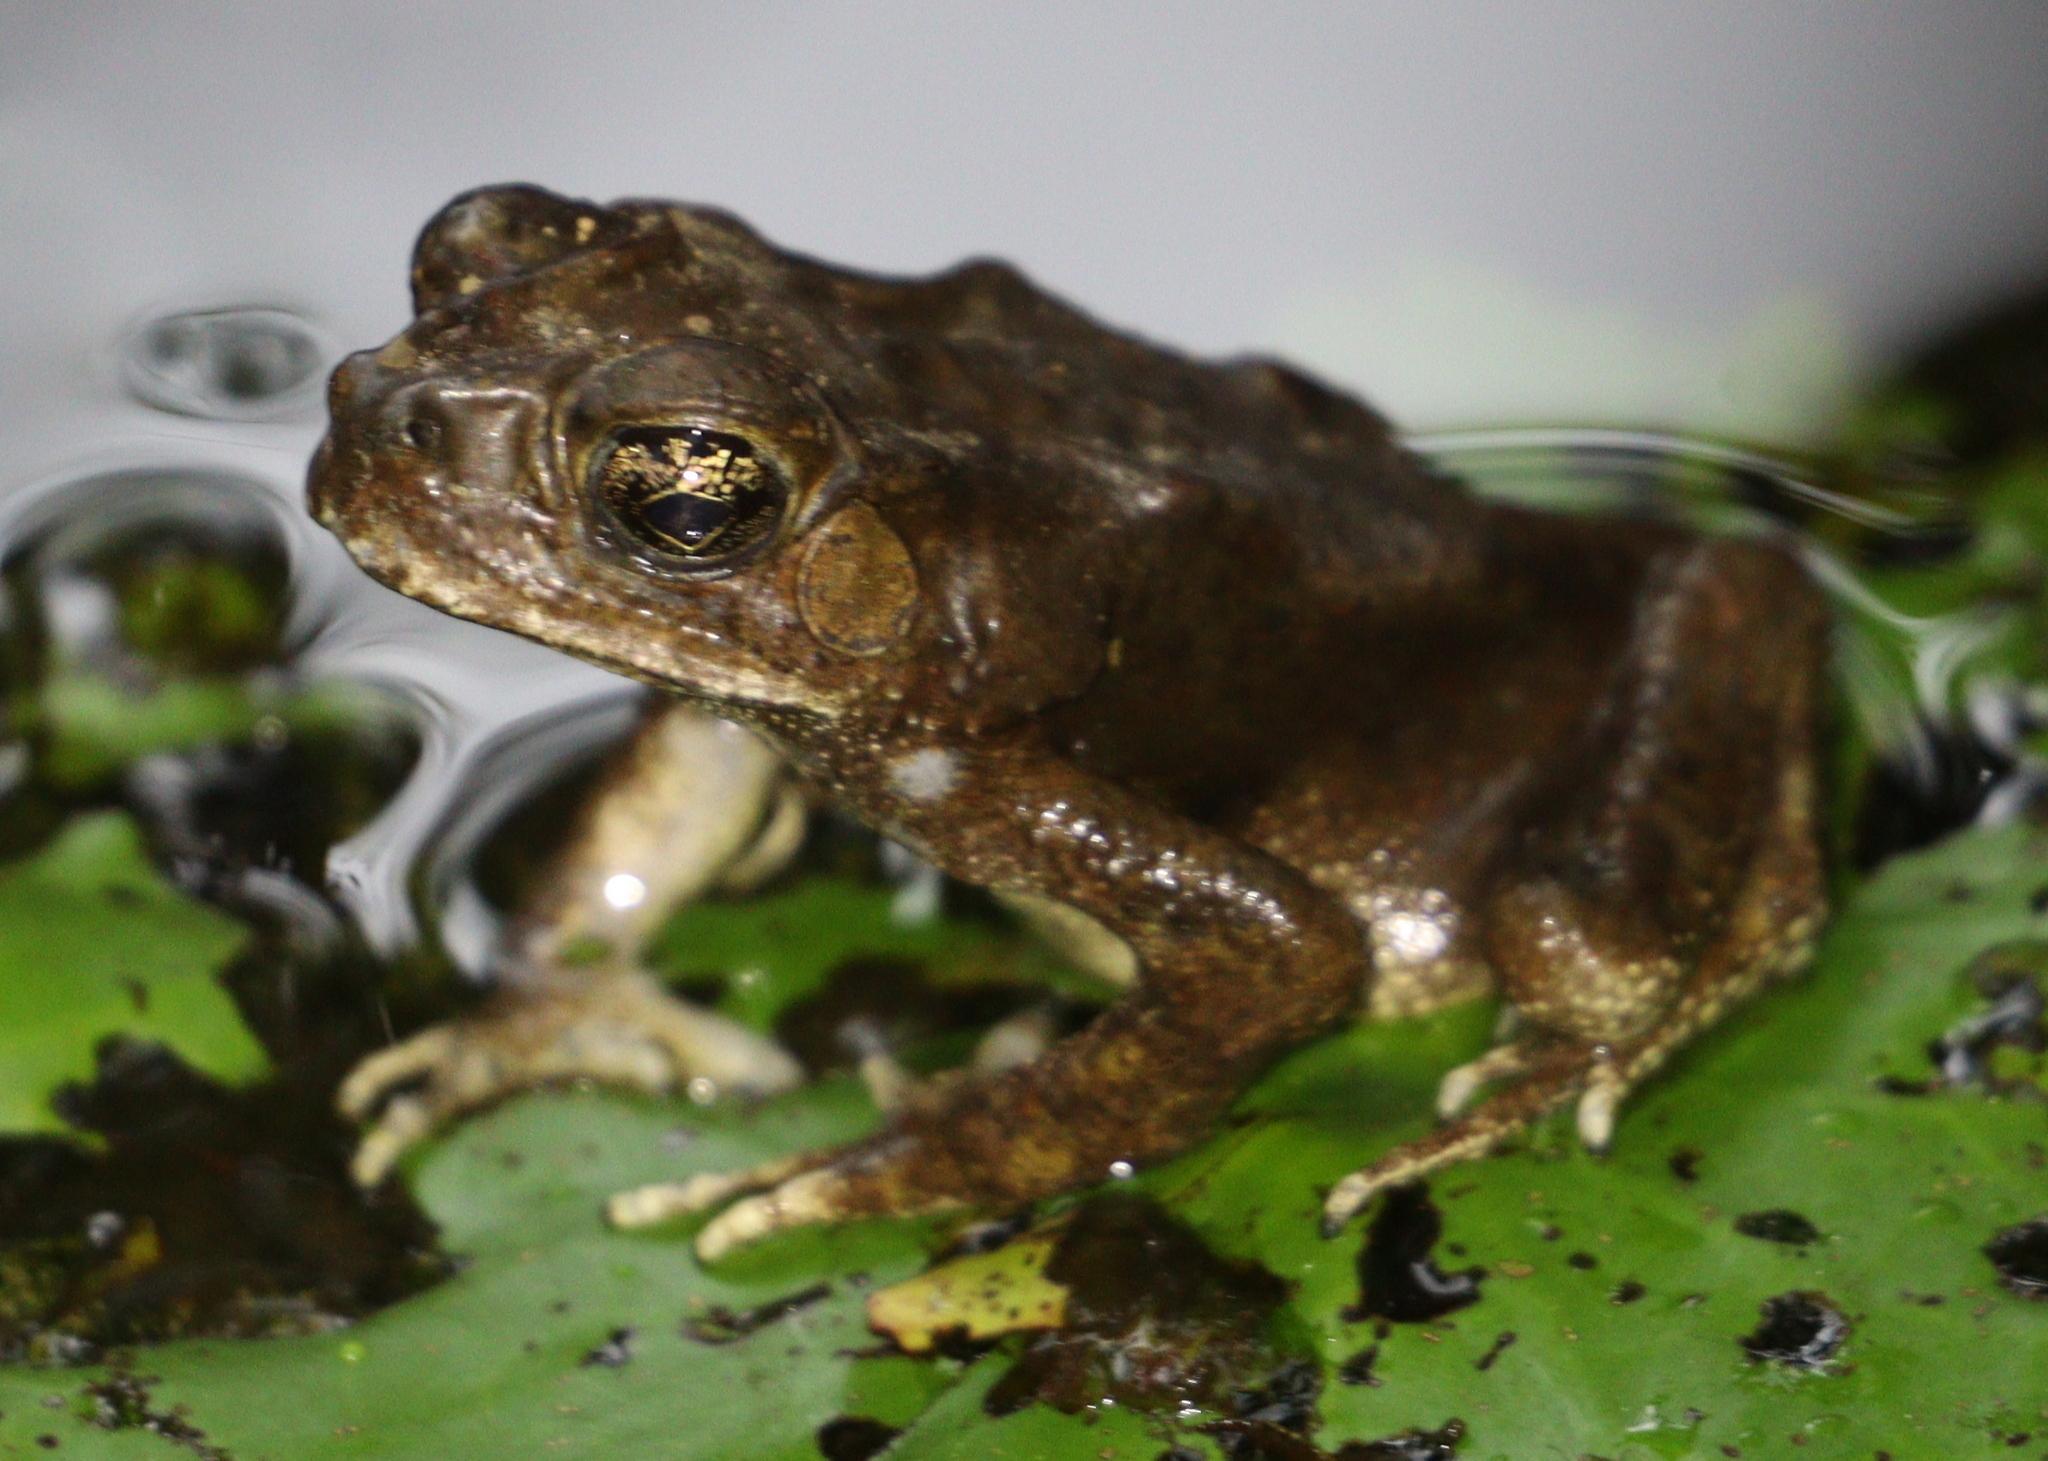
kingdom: Animalia
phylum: Chordata
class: Amphibia
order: Anura
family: Bufonidae
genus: Duttaphrynus
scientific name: Duttaphrynus melanostictus
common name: Common sunda toad
